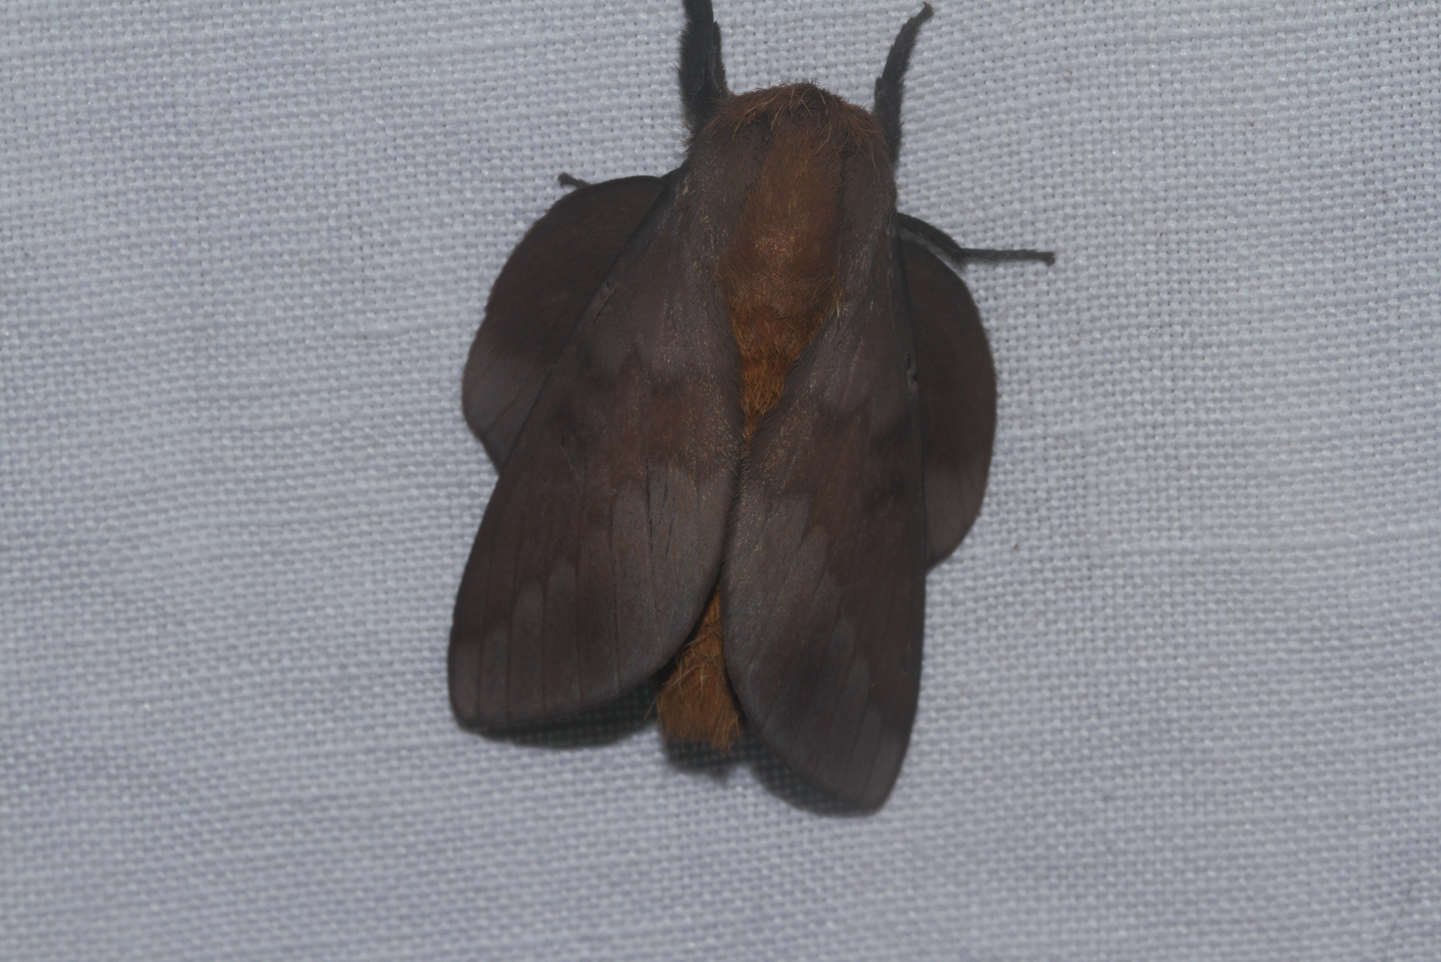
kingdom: Animalia
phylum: Arthropoda
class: Insecta
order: Lepidoptera
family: Saturniidae
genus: Ptiloscola
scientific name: Ptiloscola photophila
